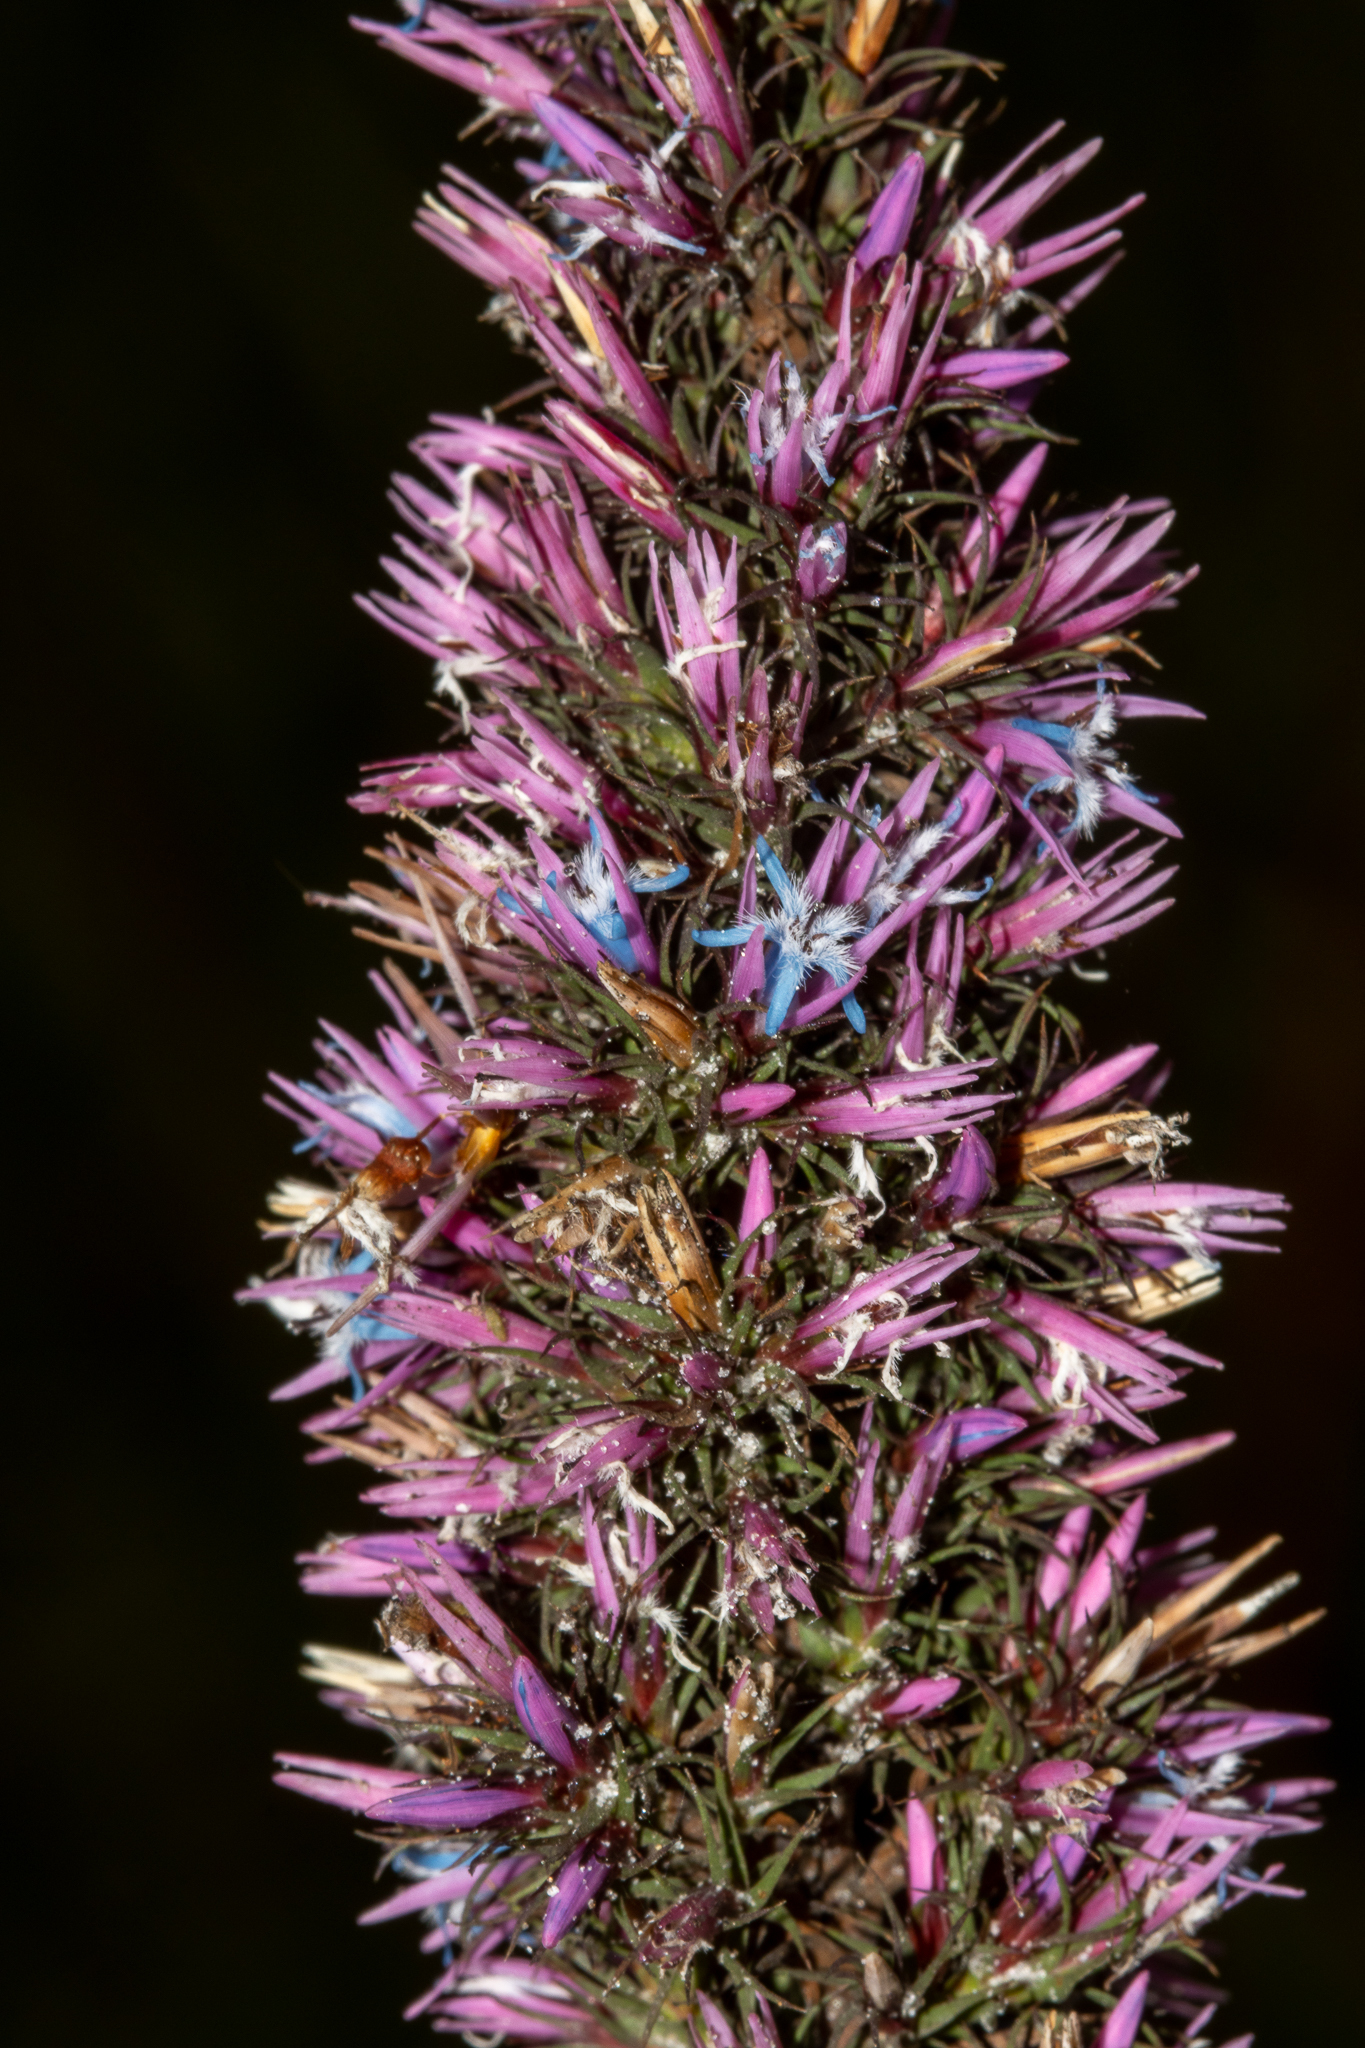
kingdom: Plantae
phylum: Tracheophyta
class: Magnoliopsida
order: Ericales
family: Ericaceae
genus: Andersonia
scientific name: Andersonia caerulea
